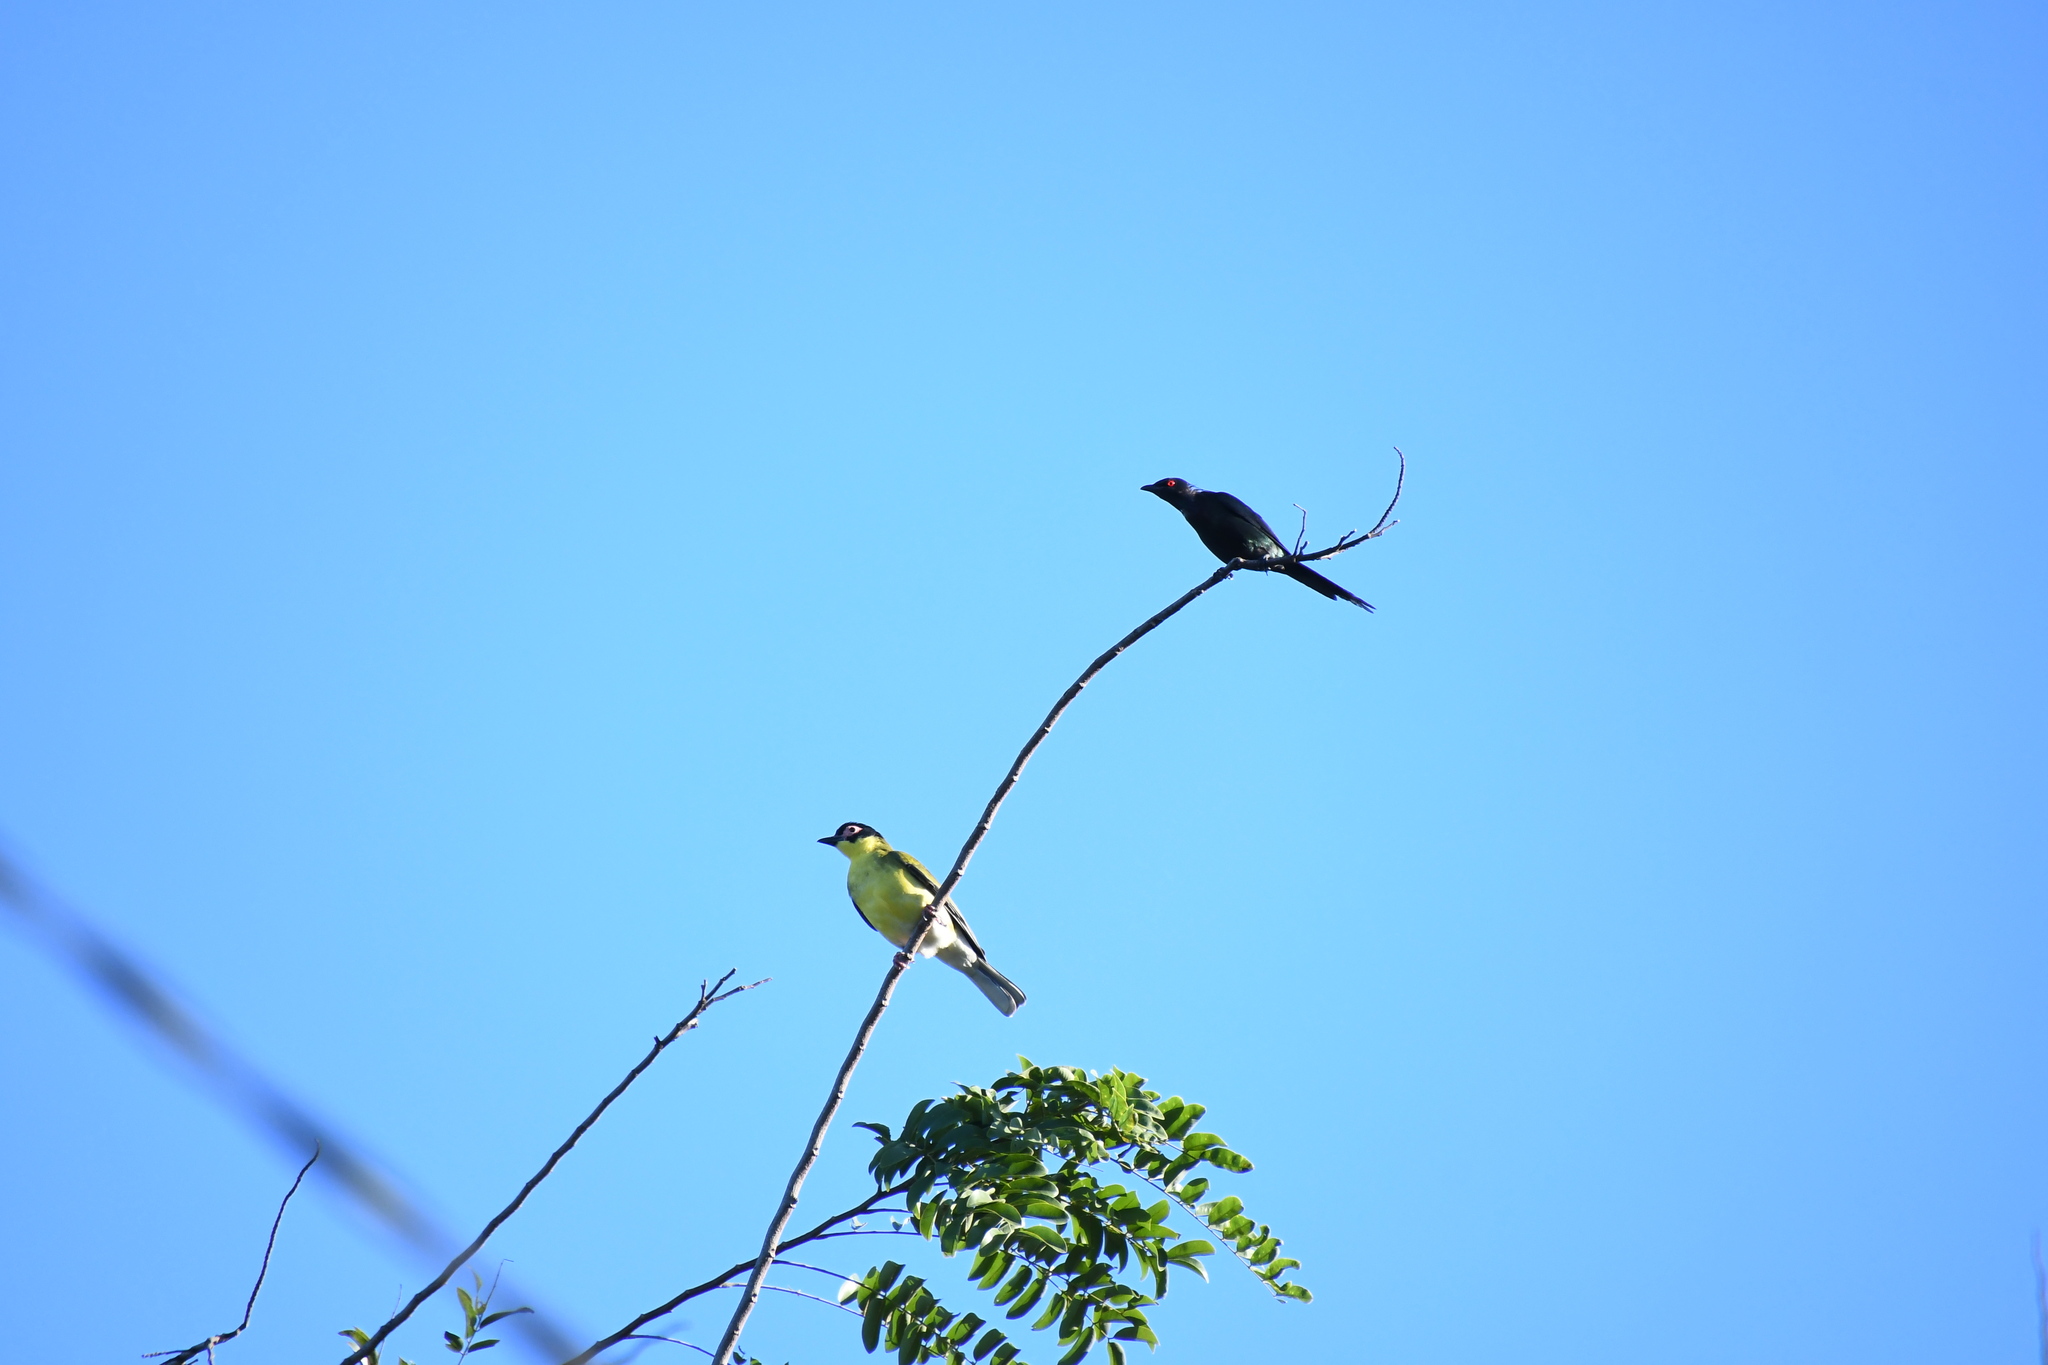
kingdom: Animalia
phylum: Chordata
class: Aves
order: Passeriformes
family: Oriolidae
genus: Sphecotheres
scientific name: Sphecotheres vieilloti
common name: Australasian figbird
